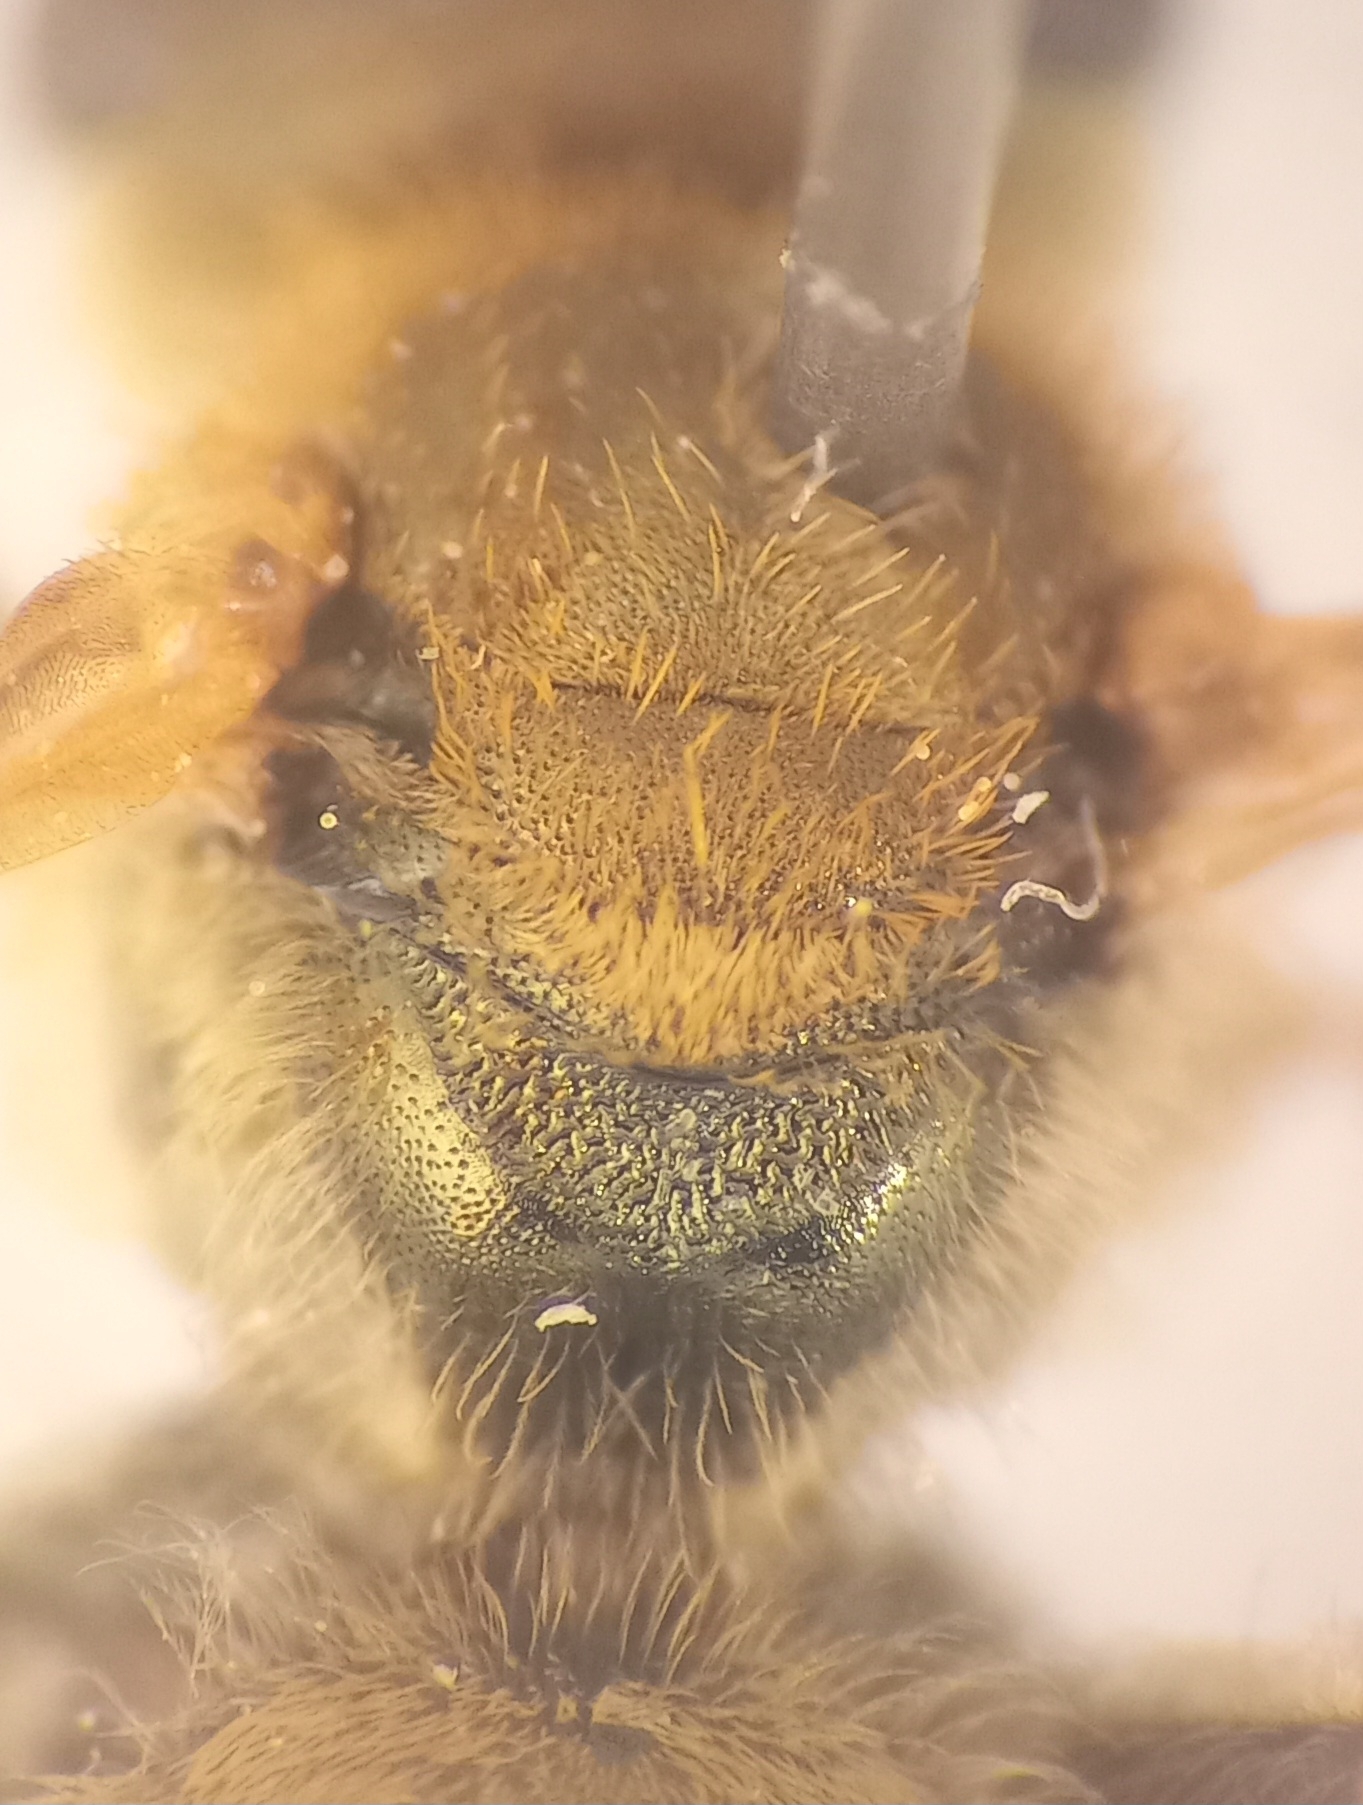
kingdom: Animalia
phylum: Arthropoda
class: Insecta
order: Hymenoptera
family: Halictidae
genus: Halictus
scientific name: Halictus subauratus
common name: Golden furrow bee
